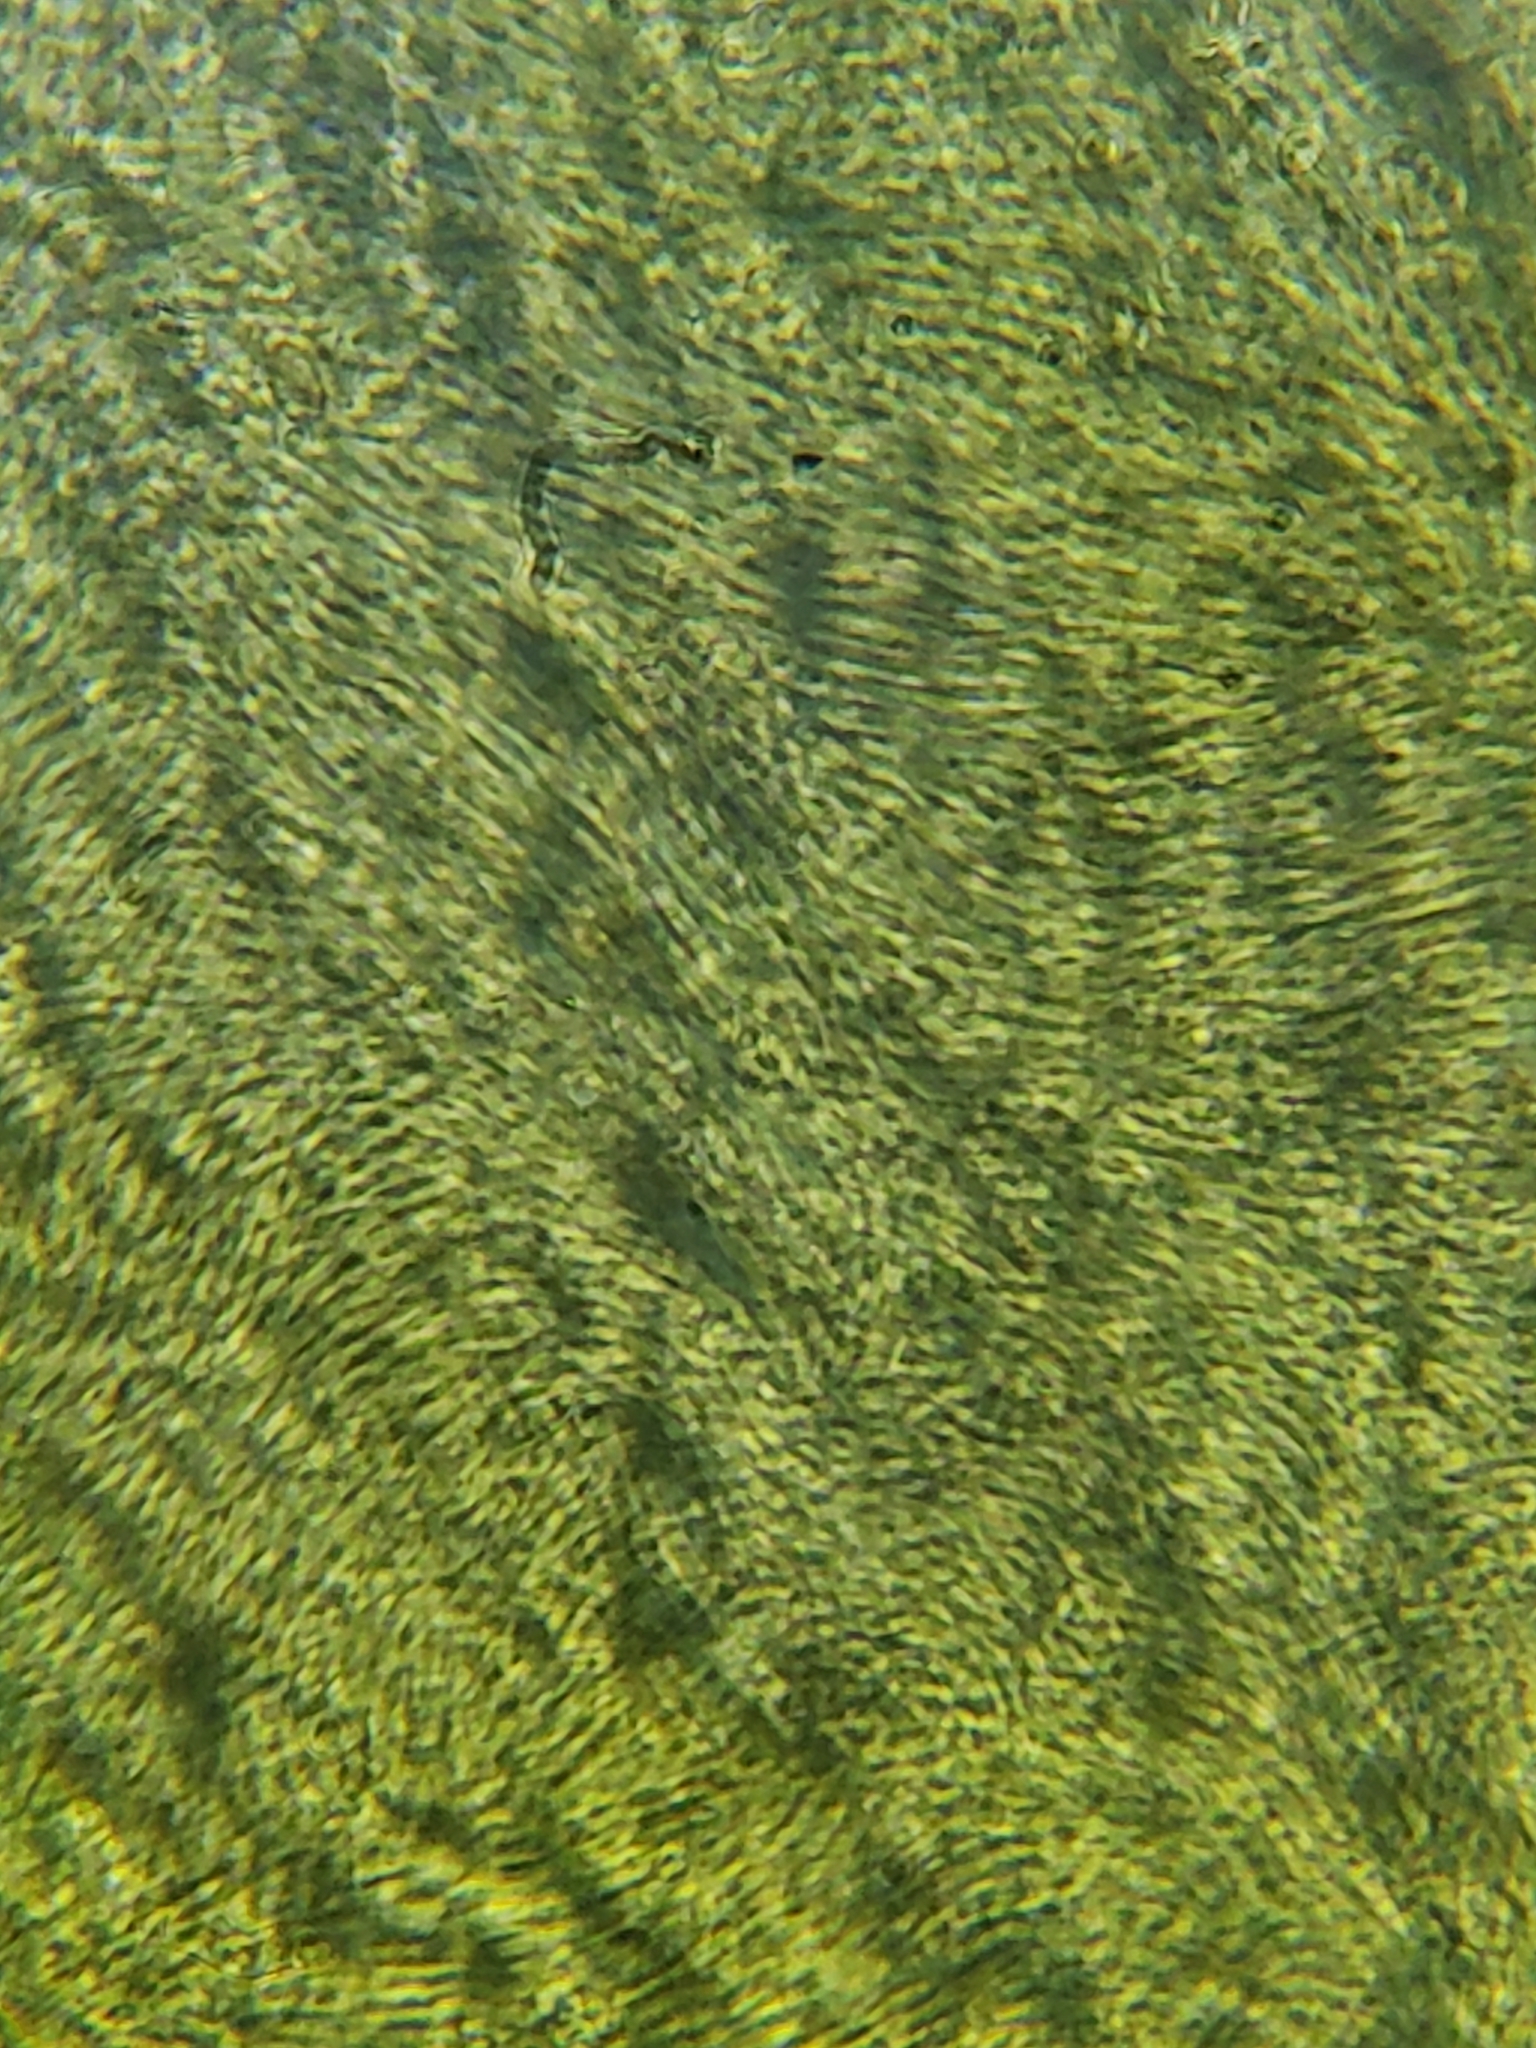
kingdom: Fungi
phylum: Ascomycota
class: Sordariomycetes
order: Hypocreales
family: Hypocreaceae
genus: Sphaerostilbella
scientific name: Sphaerostilbella aurifila
